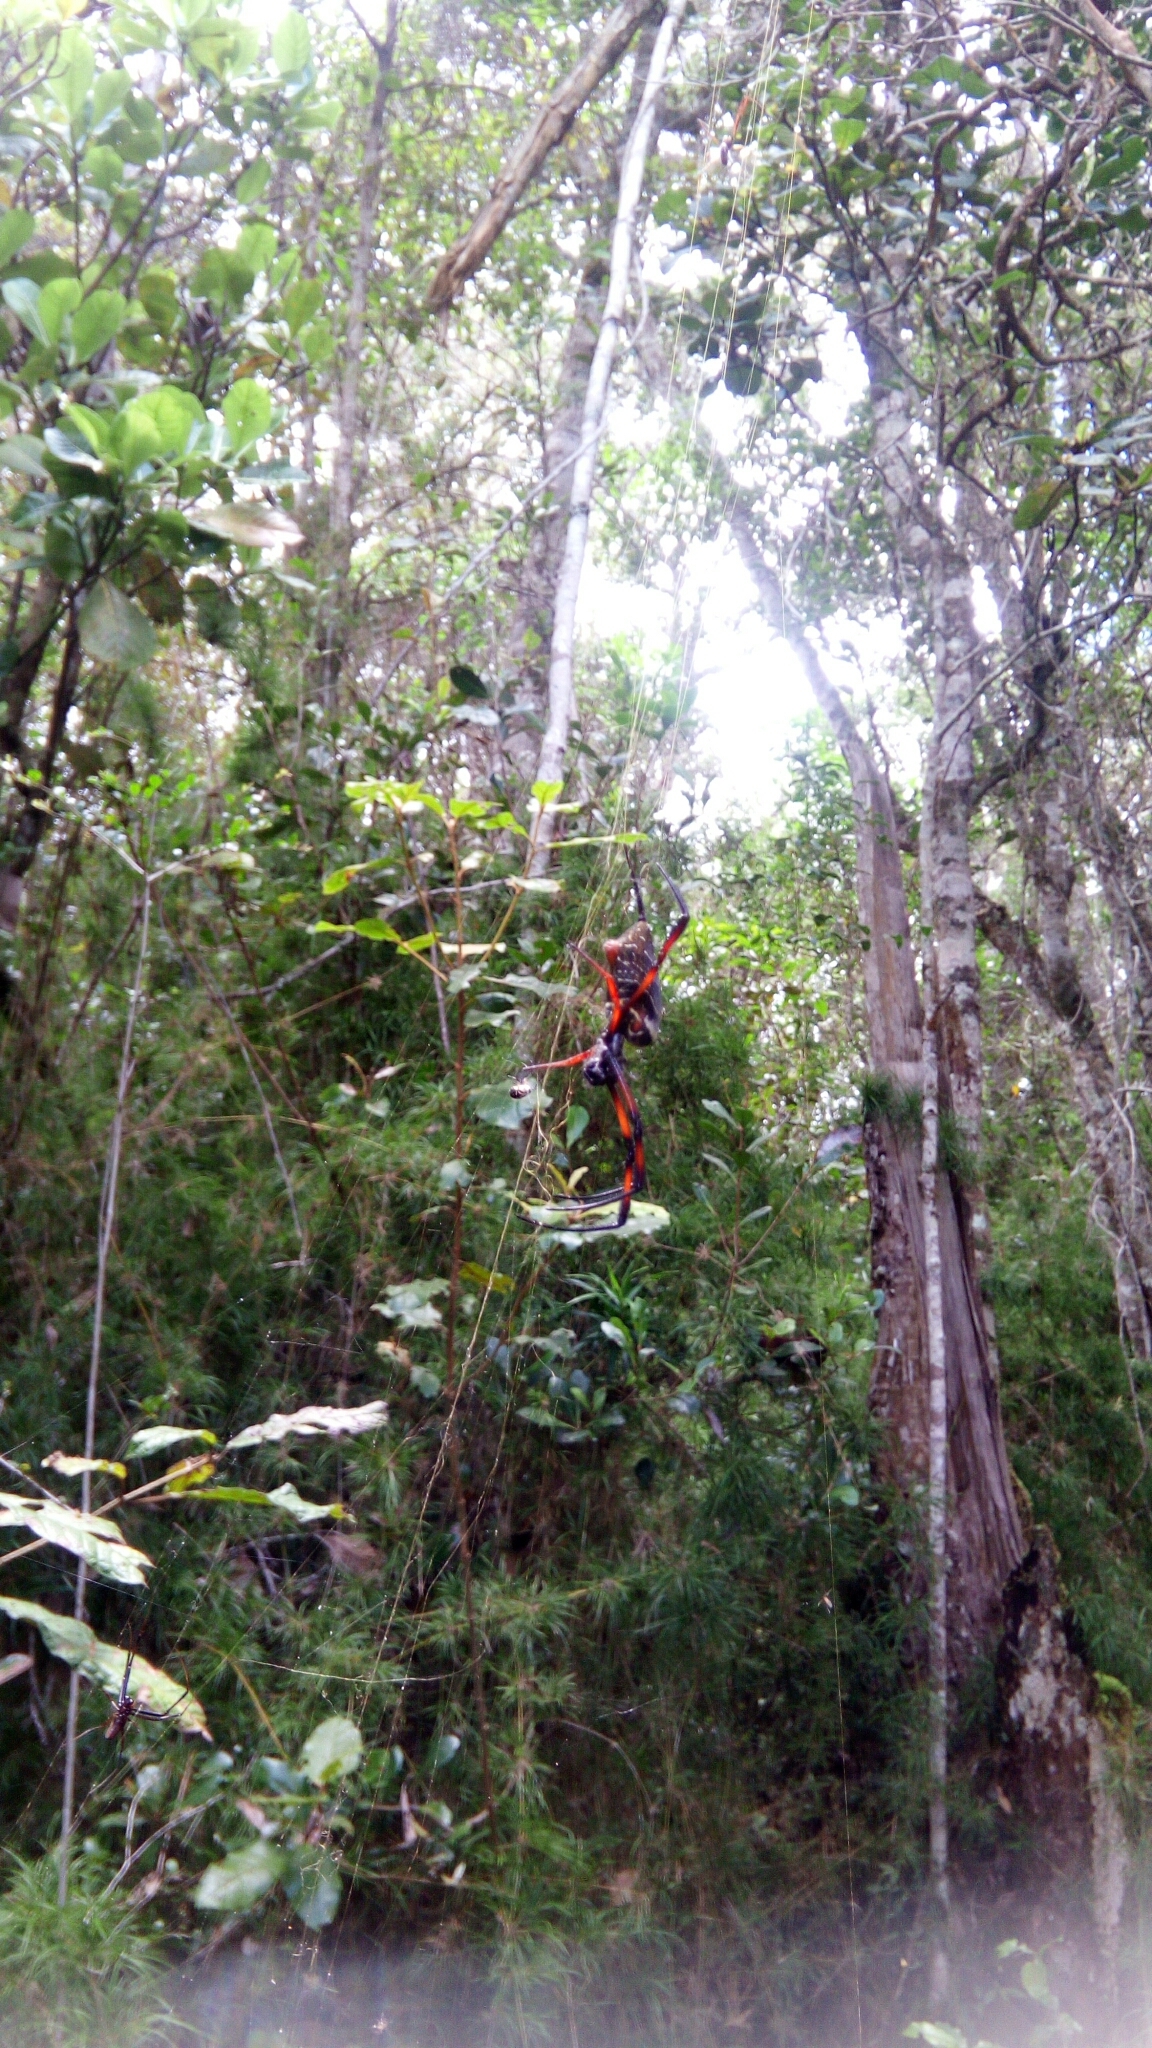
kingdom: Animalia
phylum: Arthropoda
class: Arachnida
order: Araneae
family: Araneidae
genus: Trichonephila
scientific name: Trichonephila inaurata
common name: Red-legged golden orb weaver
